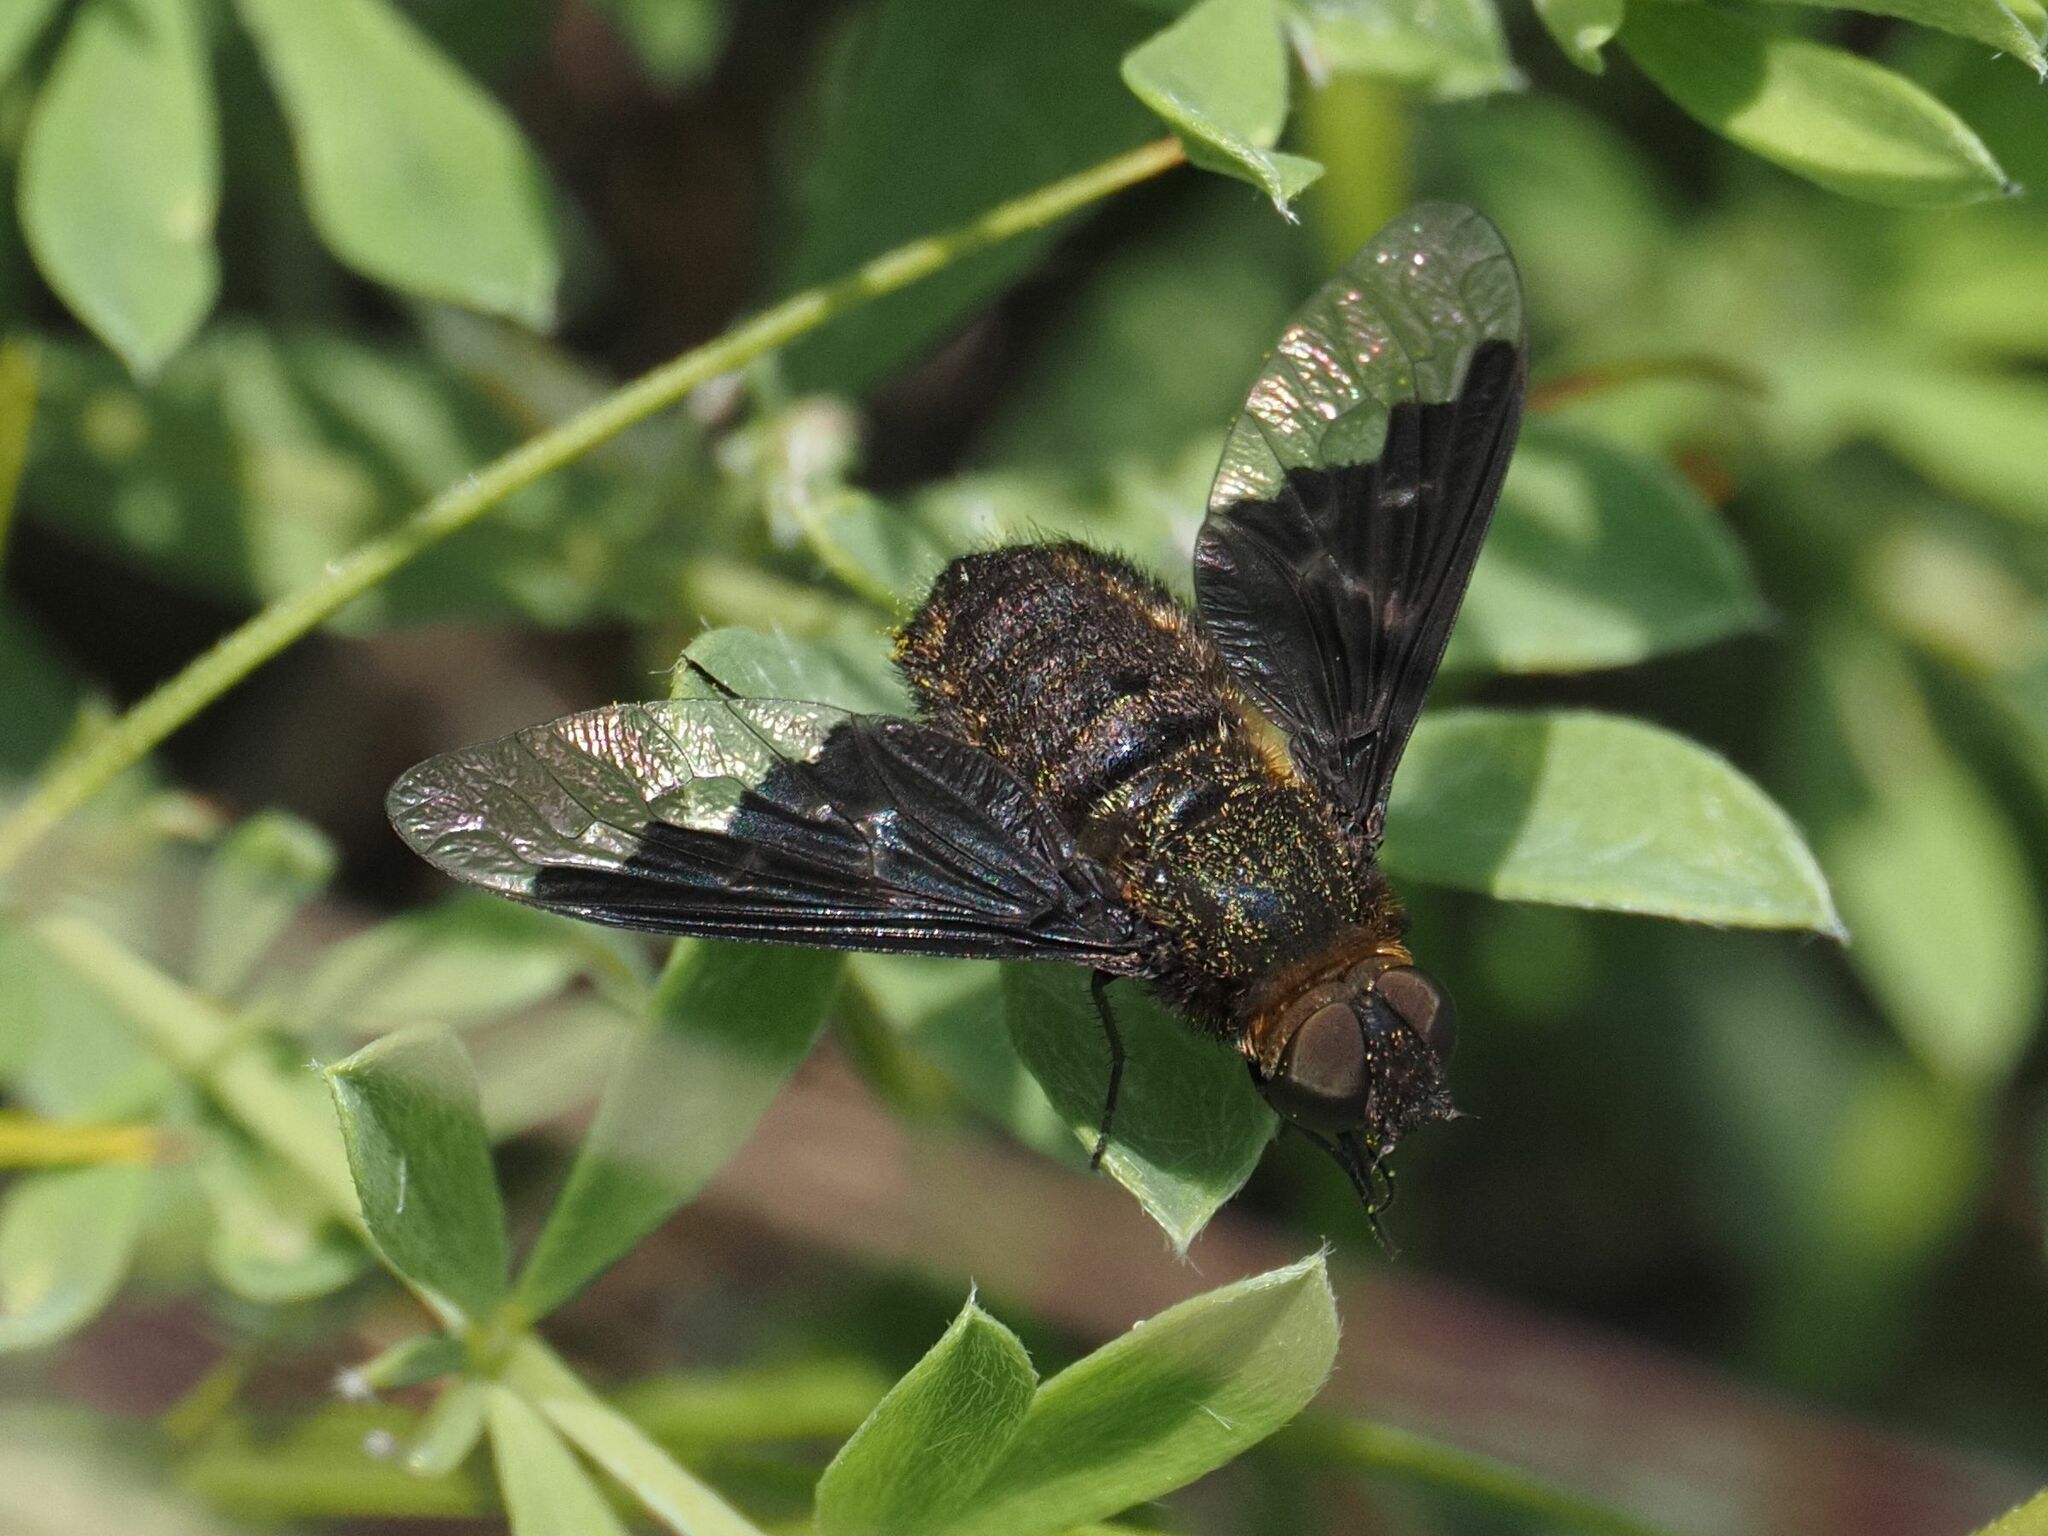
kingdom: Animalia
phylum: Arthropoda
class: Insecta
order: Diptera
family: Bombyliidae
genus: Hemipenthes
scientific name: Hemipenthes morio
